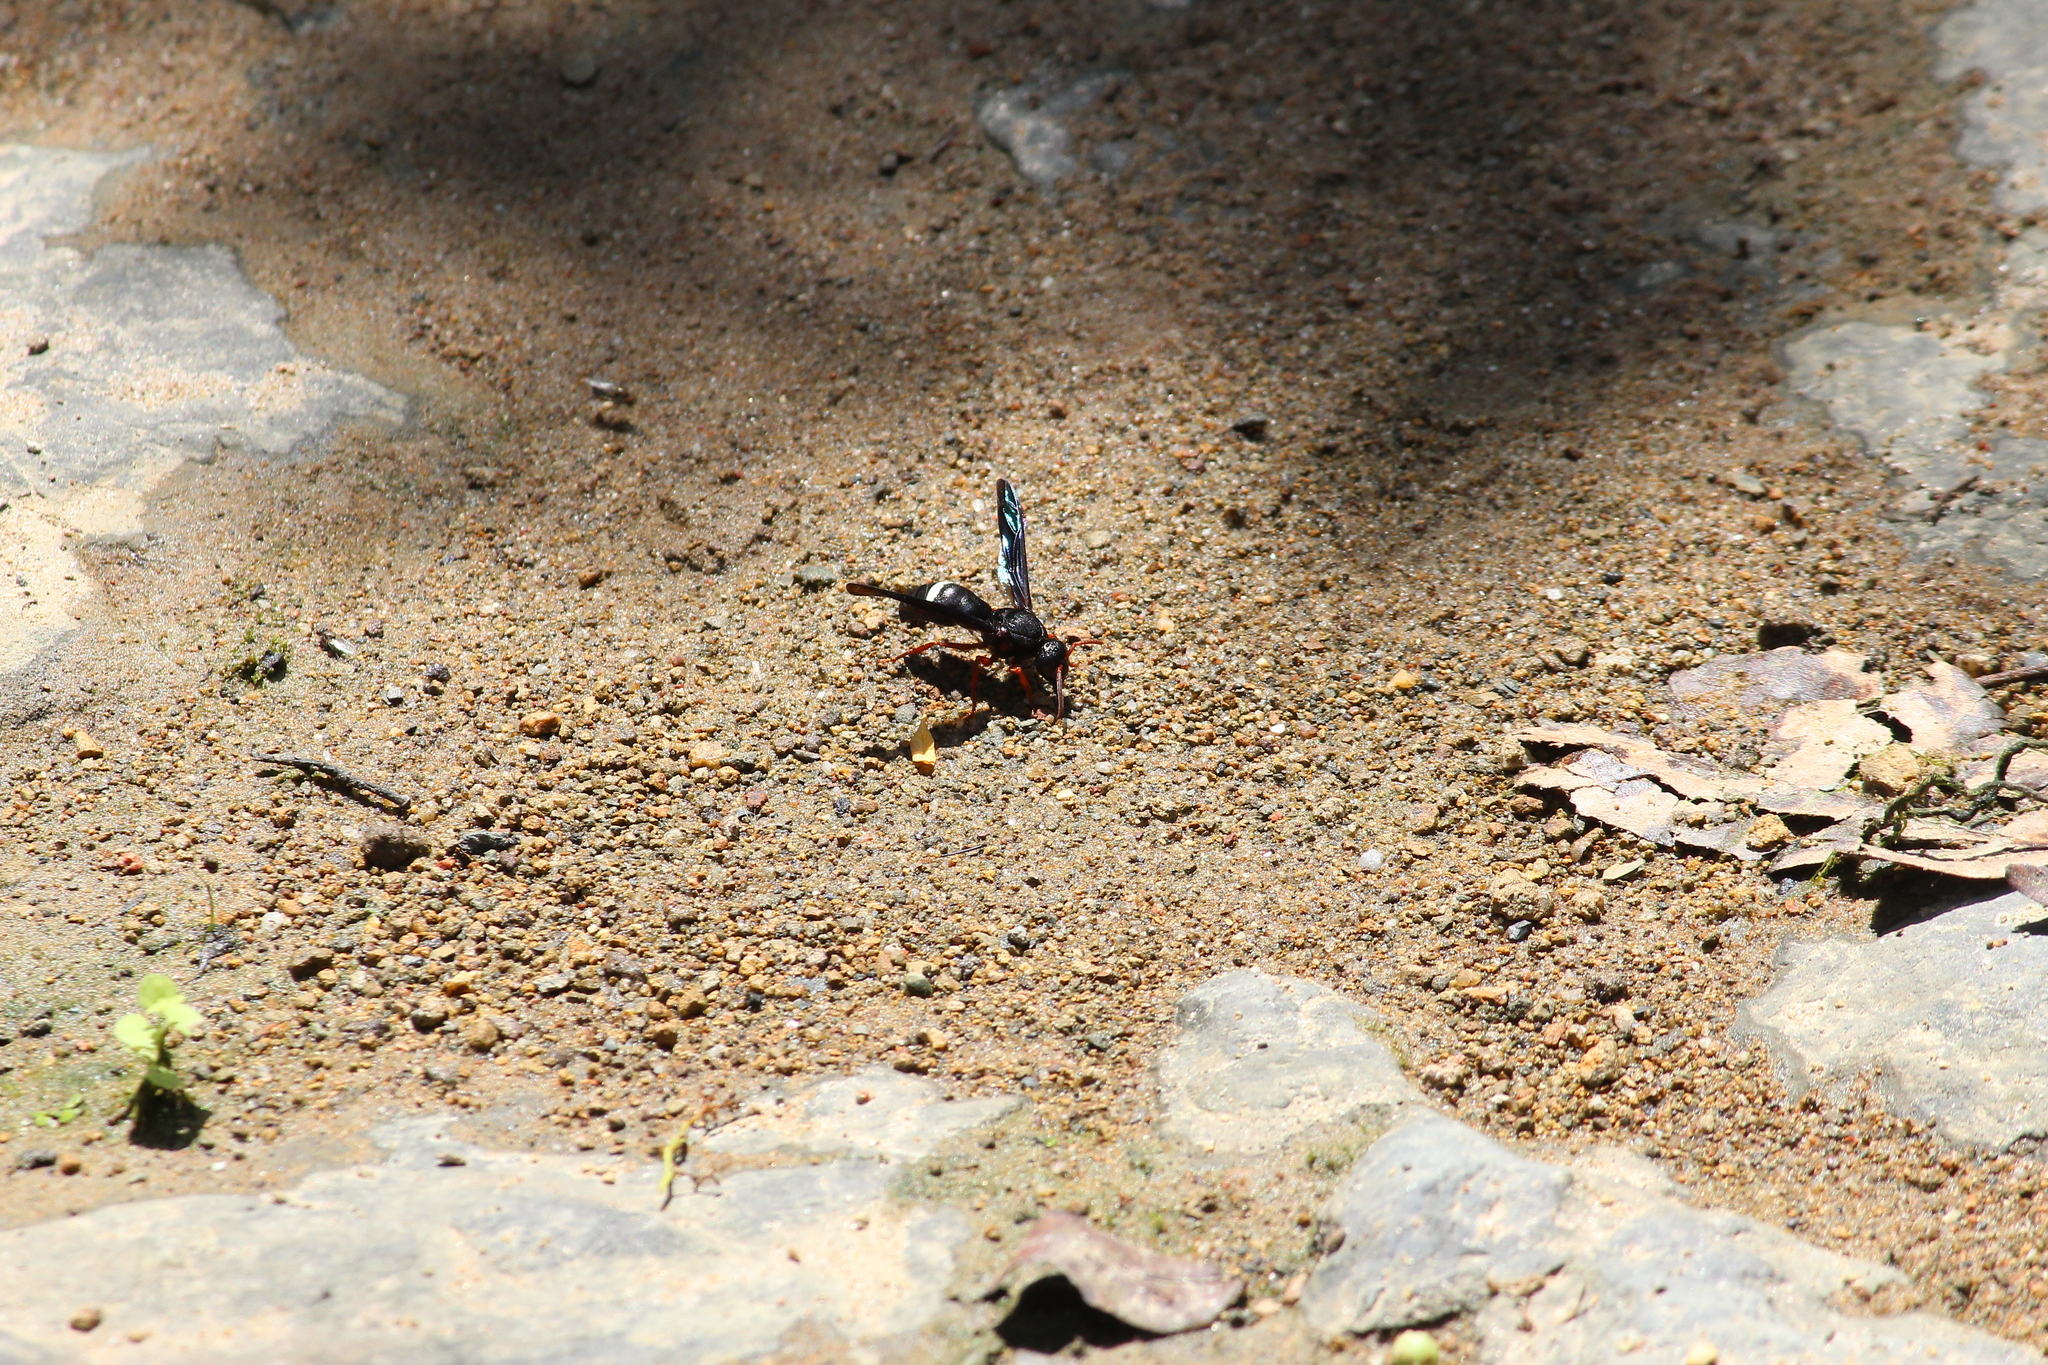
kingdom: Animalia
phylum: Arthropoda
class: Insecta
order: Hymenoptera
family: Eumenidae
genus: Anterhynchium
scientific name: Anterhynchium grayi
